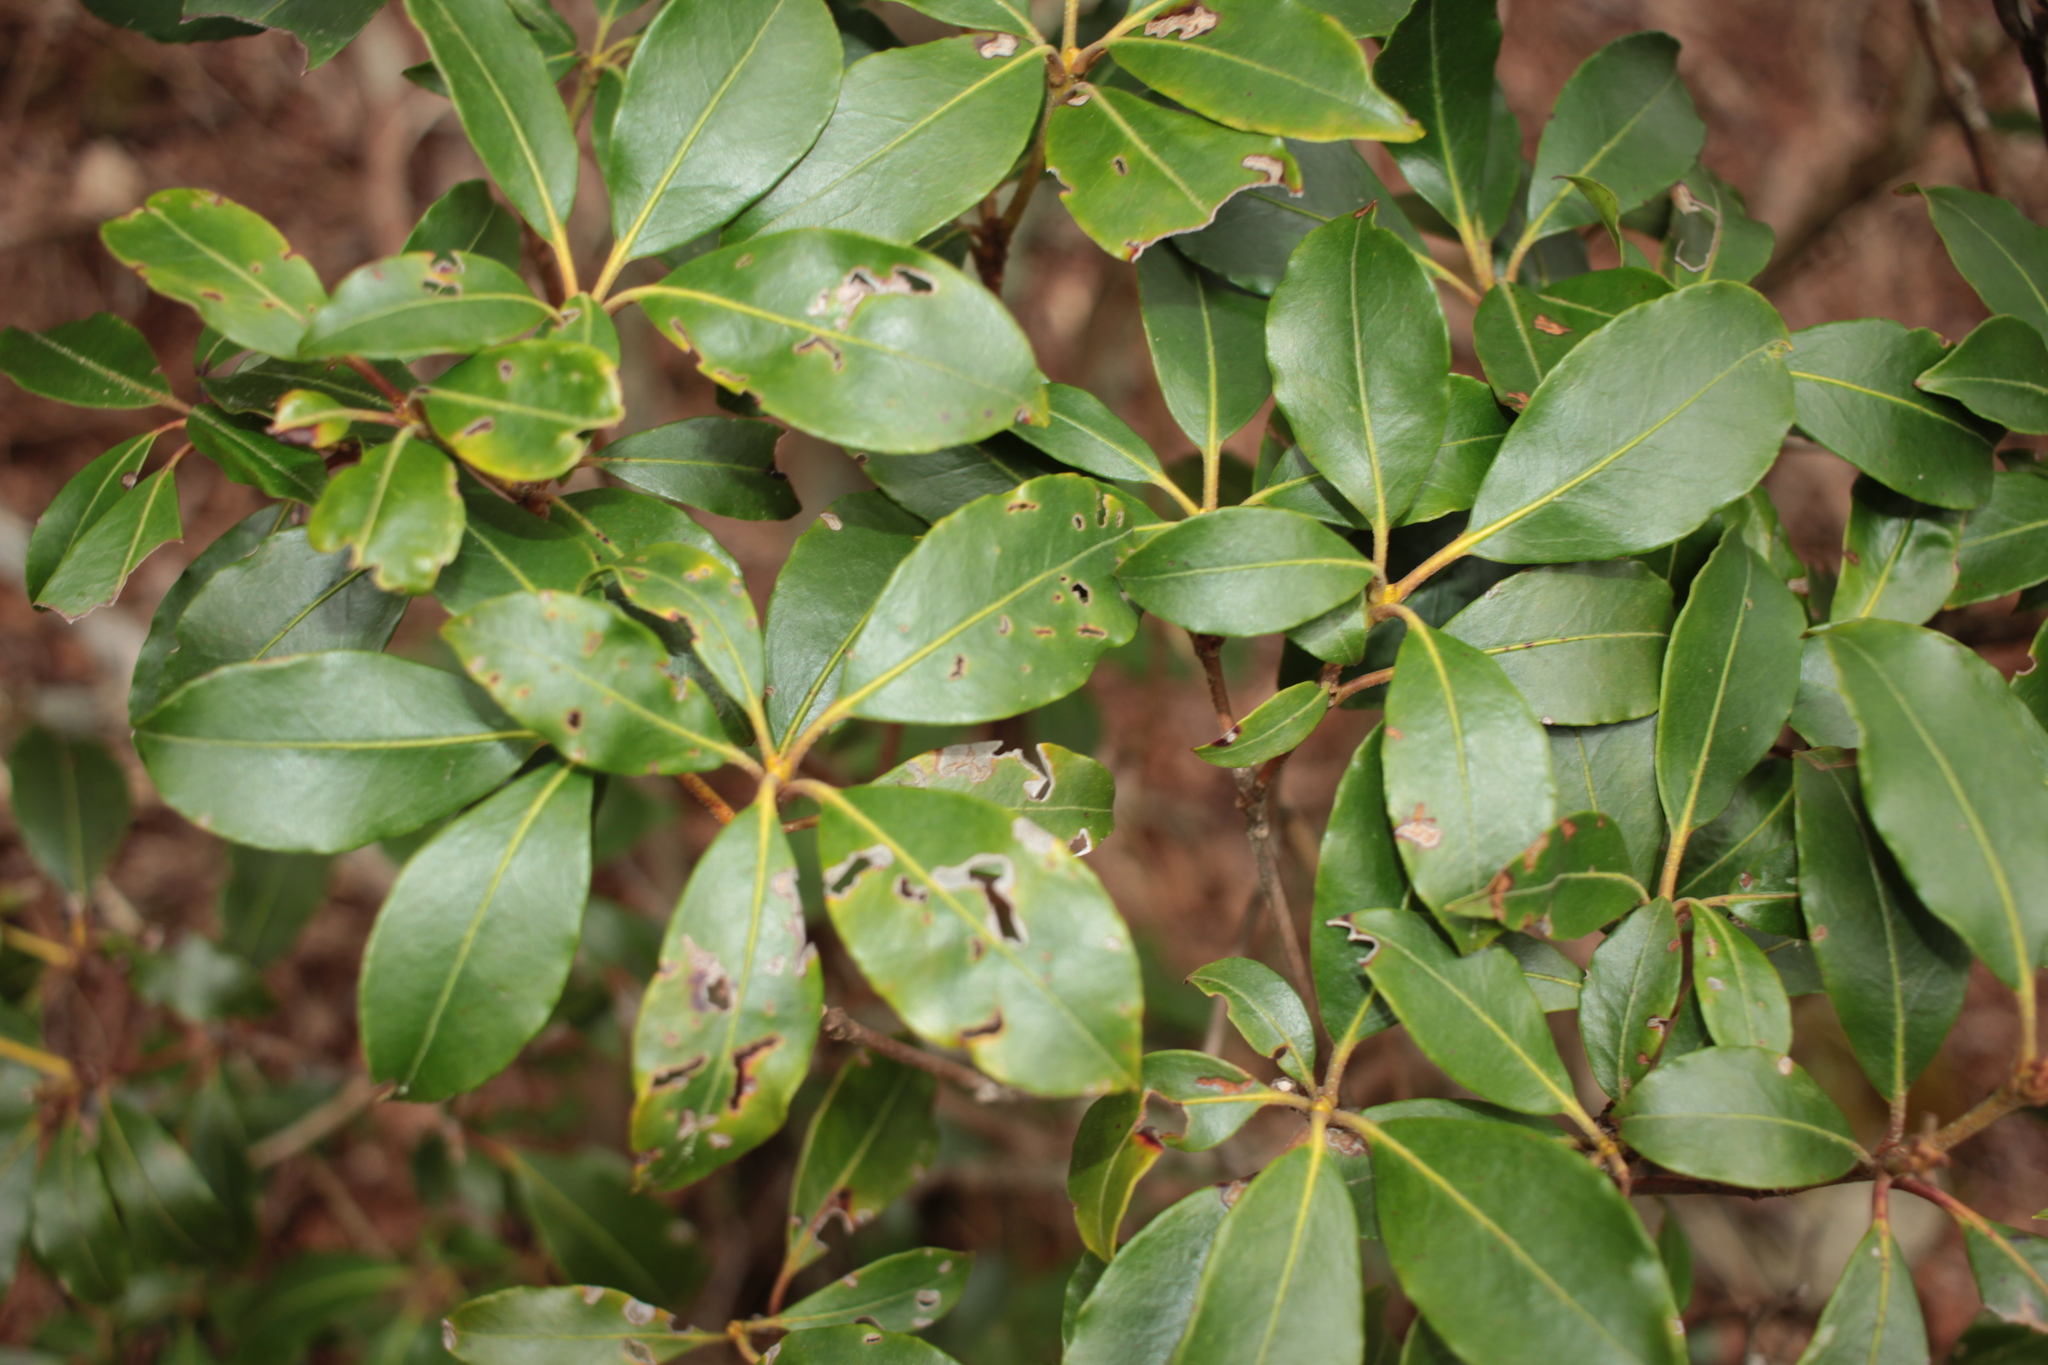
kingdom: Plantae
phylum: Tracheophyta
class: Magnoliopsida
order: Ericales
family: Ericaceae
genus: Kalmia
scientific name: Kalmia latifolia
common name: Mountain-laurel
